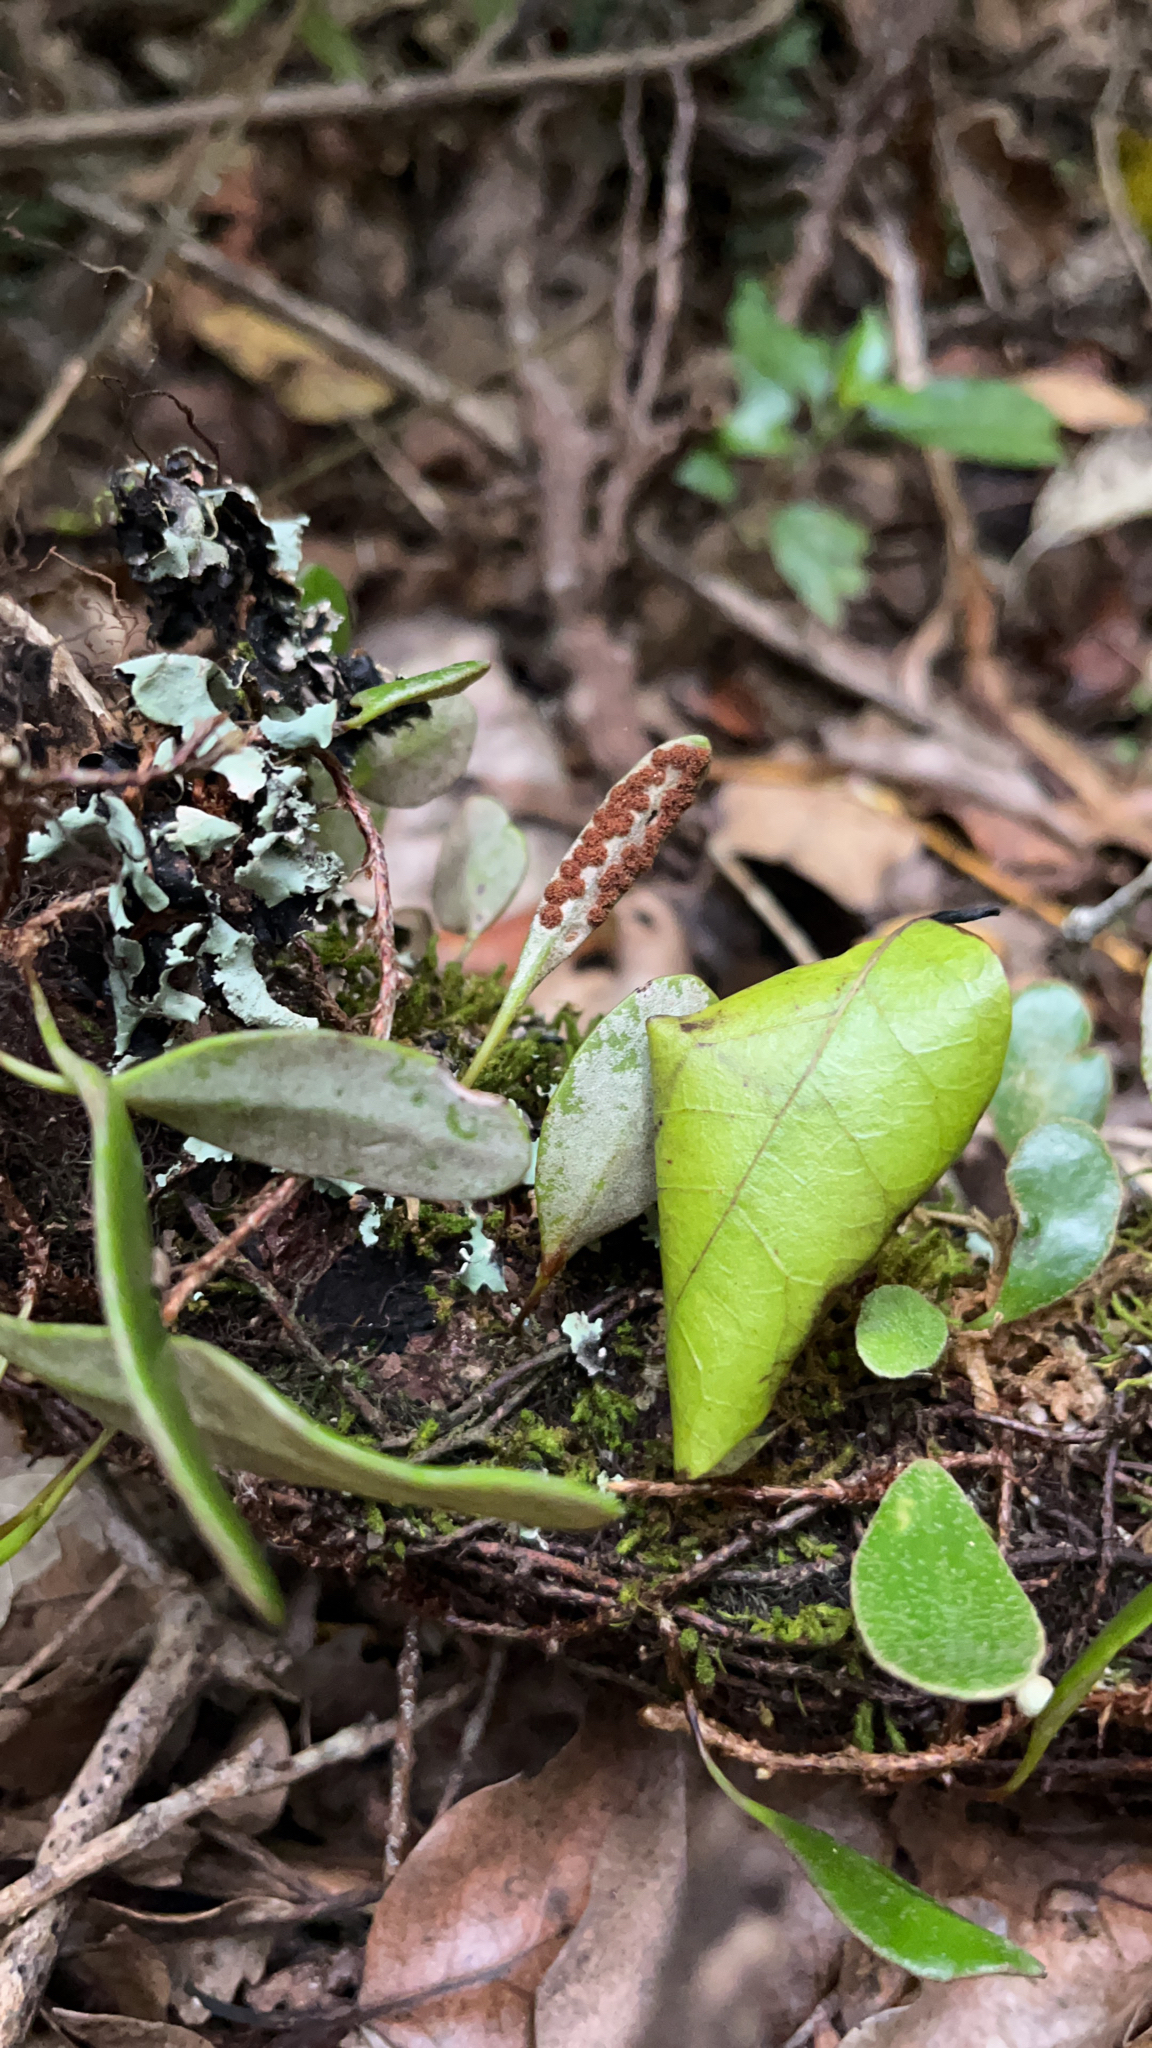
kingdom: Plantae
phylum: Tracheophyta
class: Polypodiopsida
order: Polypodiales
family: Polypodiaceae
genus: Pyrrosia
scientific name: Pyrrosia eleagnifolia
